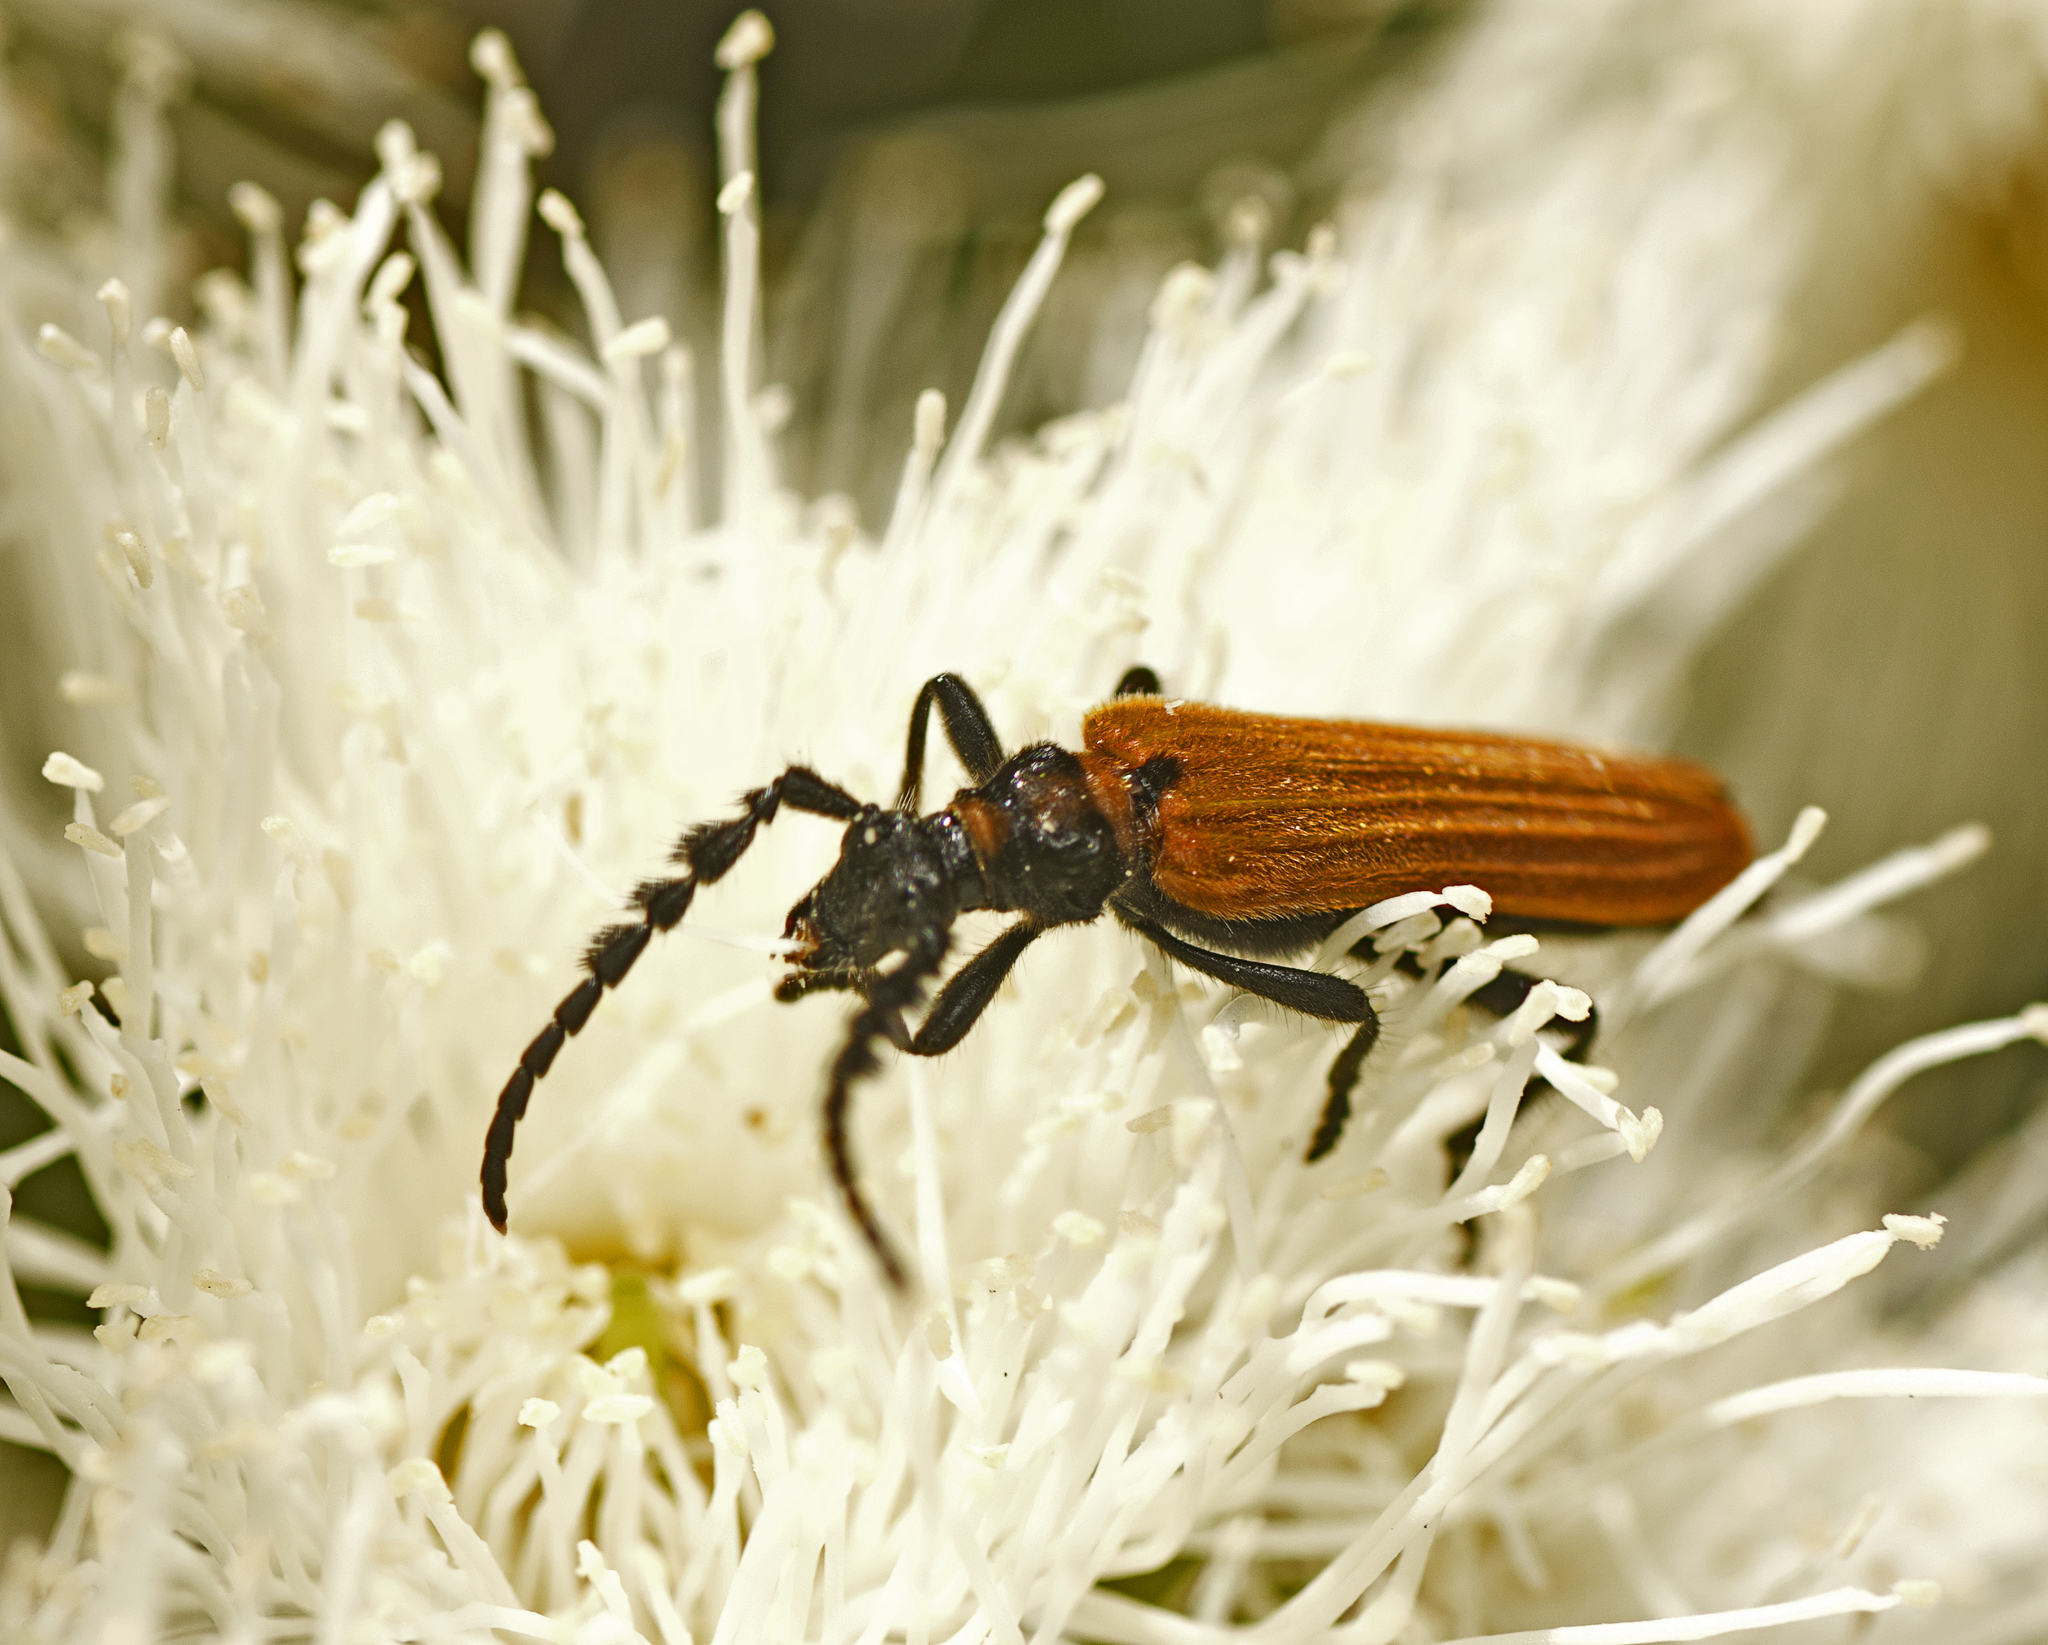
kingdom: Animalia
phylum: Arthropoda
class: Insecta
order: Coleoptera
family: Cerambycidae
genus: Eroschema
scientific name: Eroschema poweri
